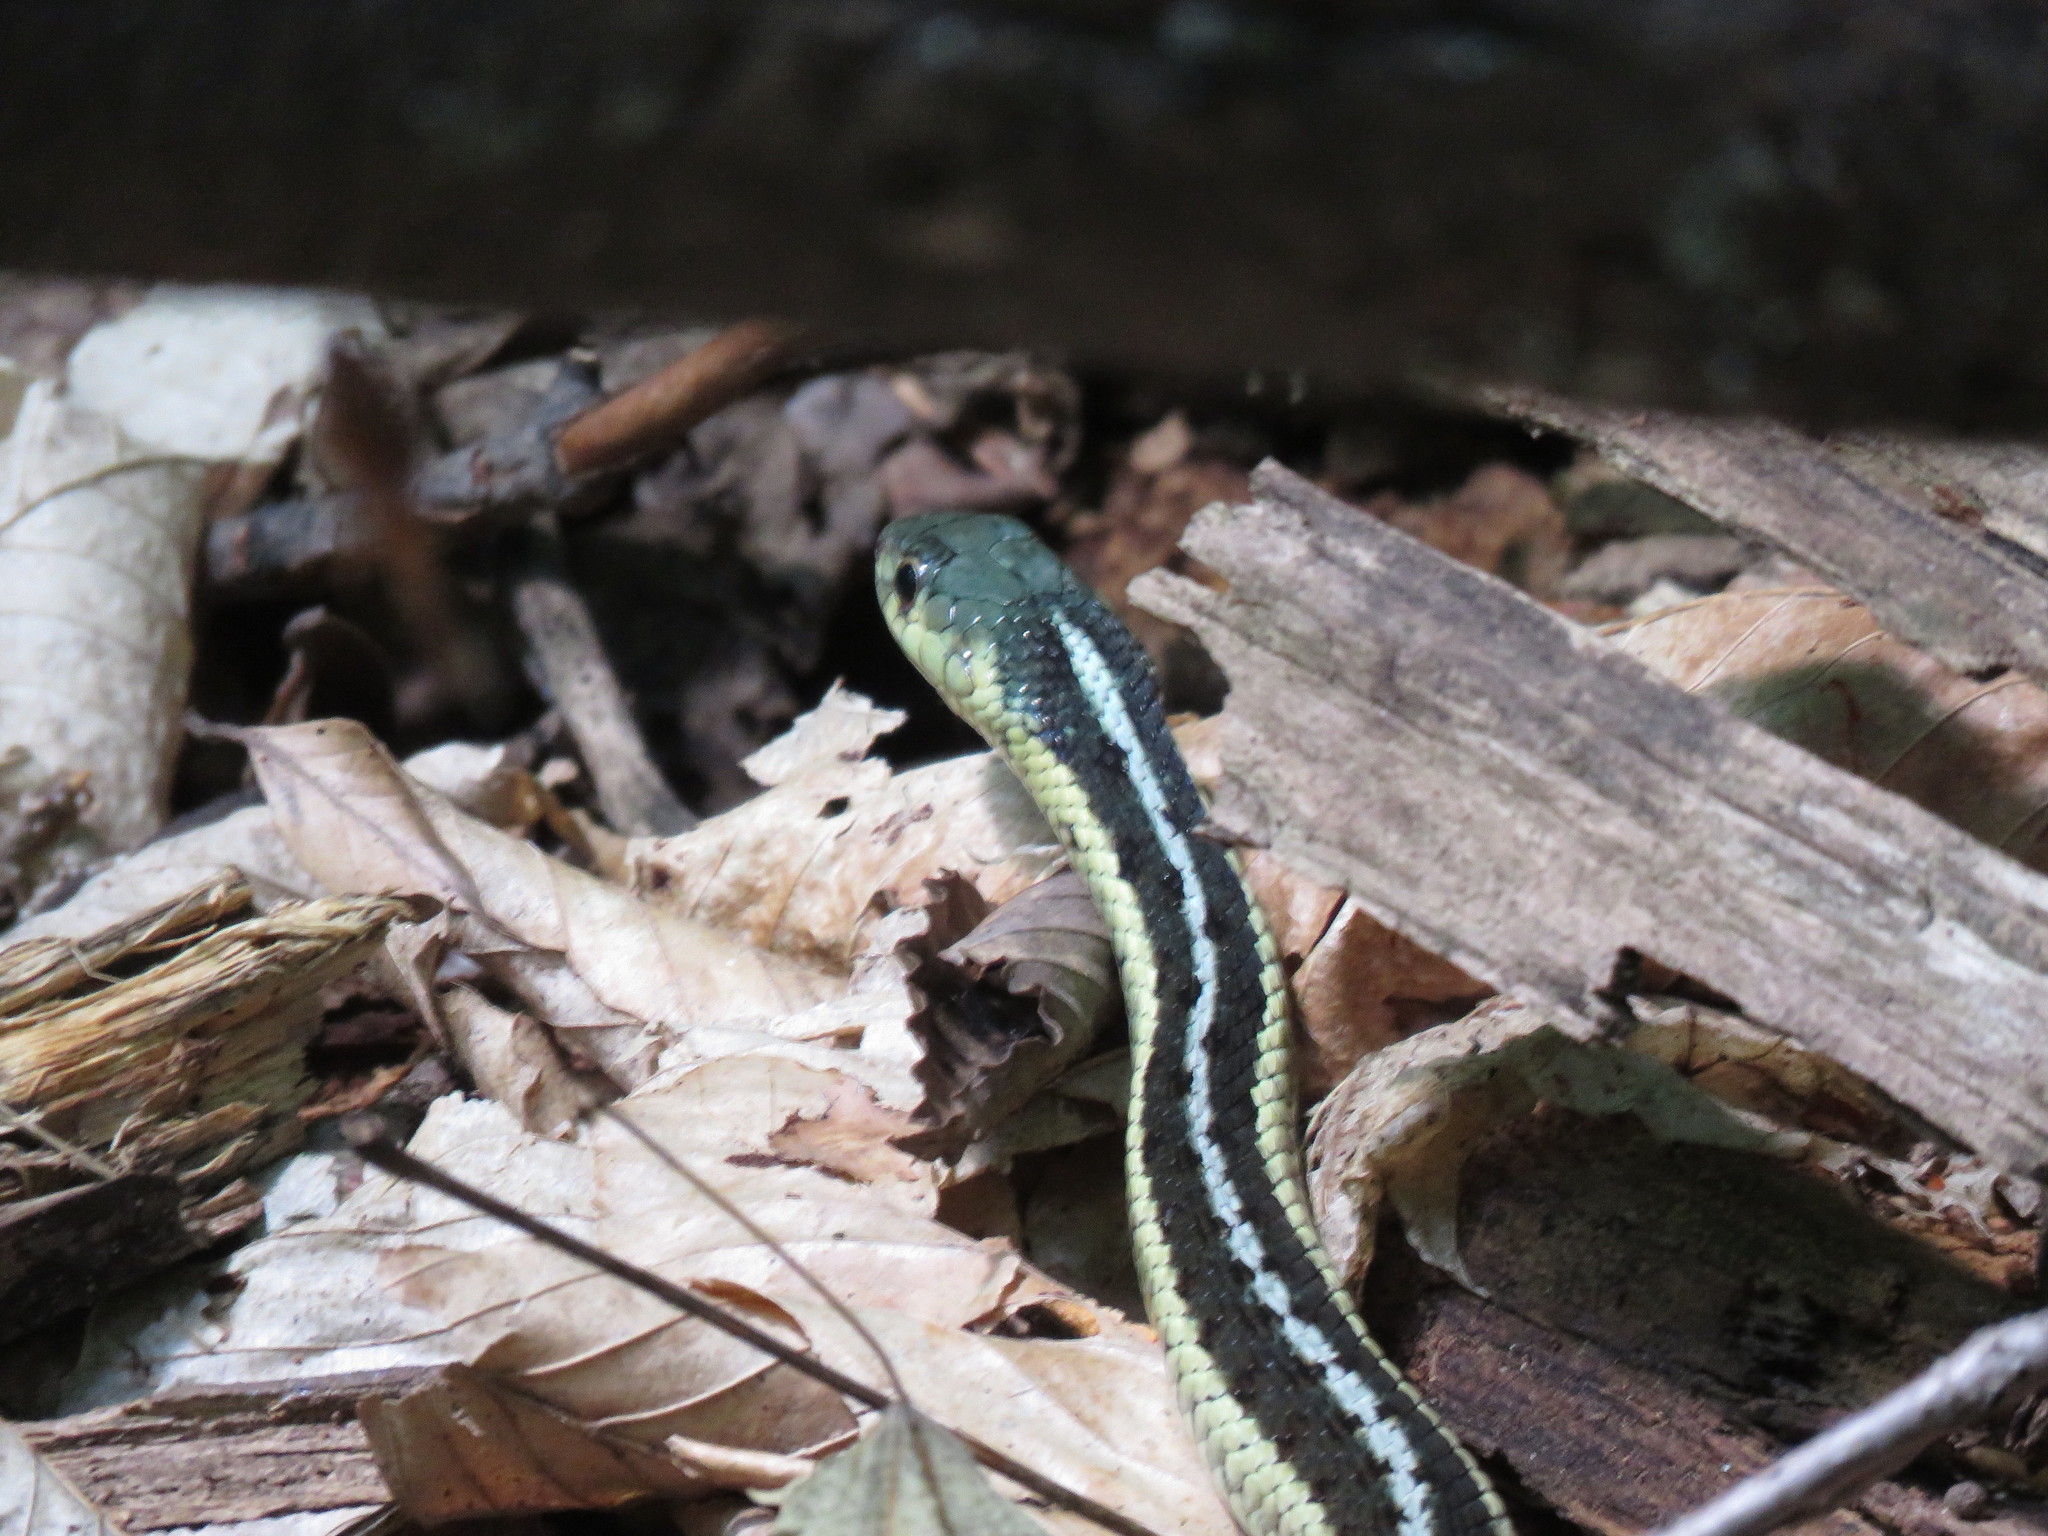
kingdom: Animalia
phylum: Chordata
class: Squamata
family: Colubridae
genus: Thamnophis
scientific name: Thamnophis sirtalis
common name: Common garter snake
